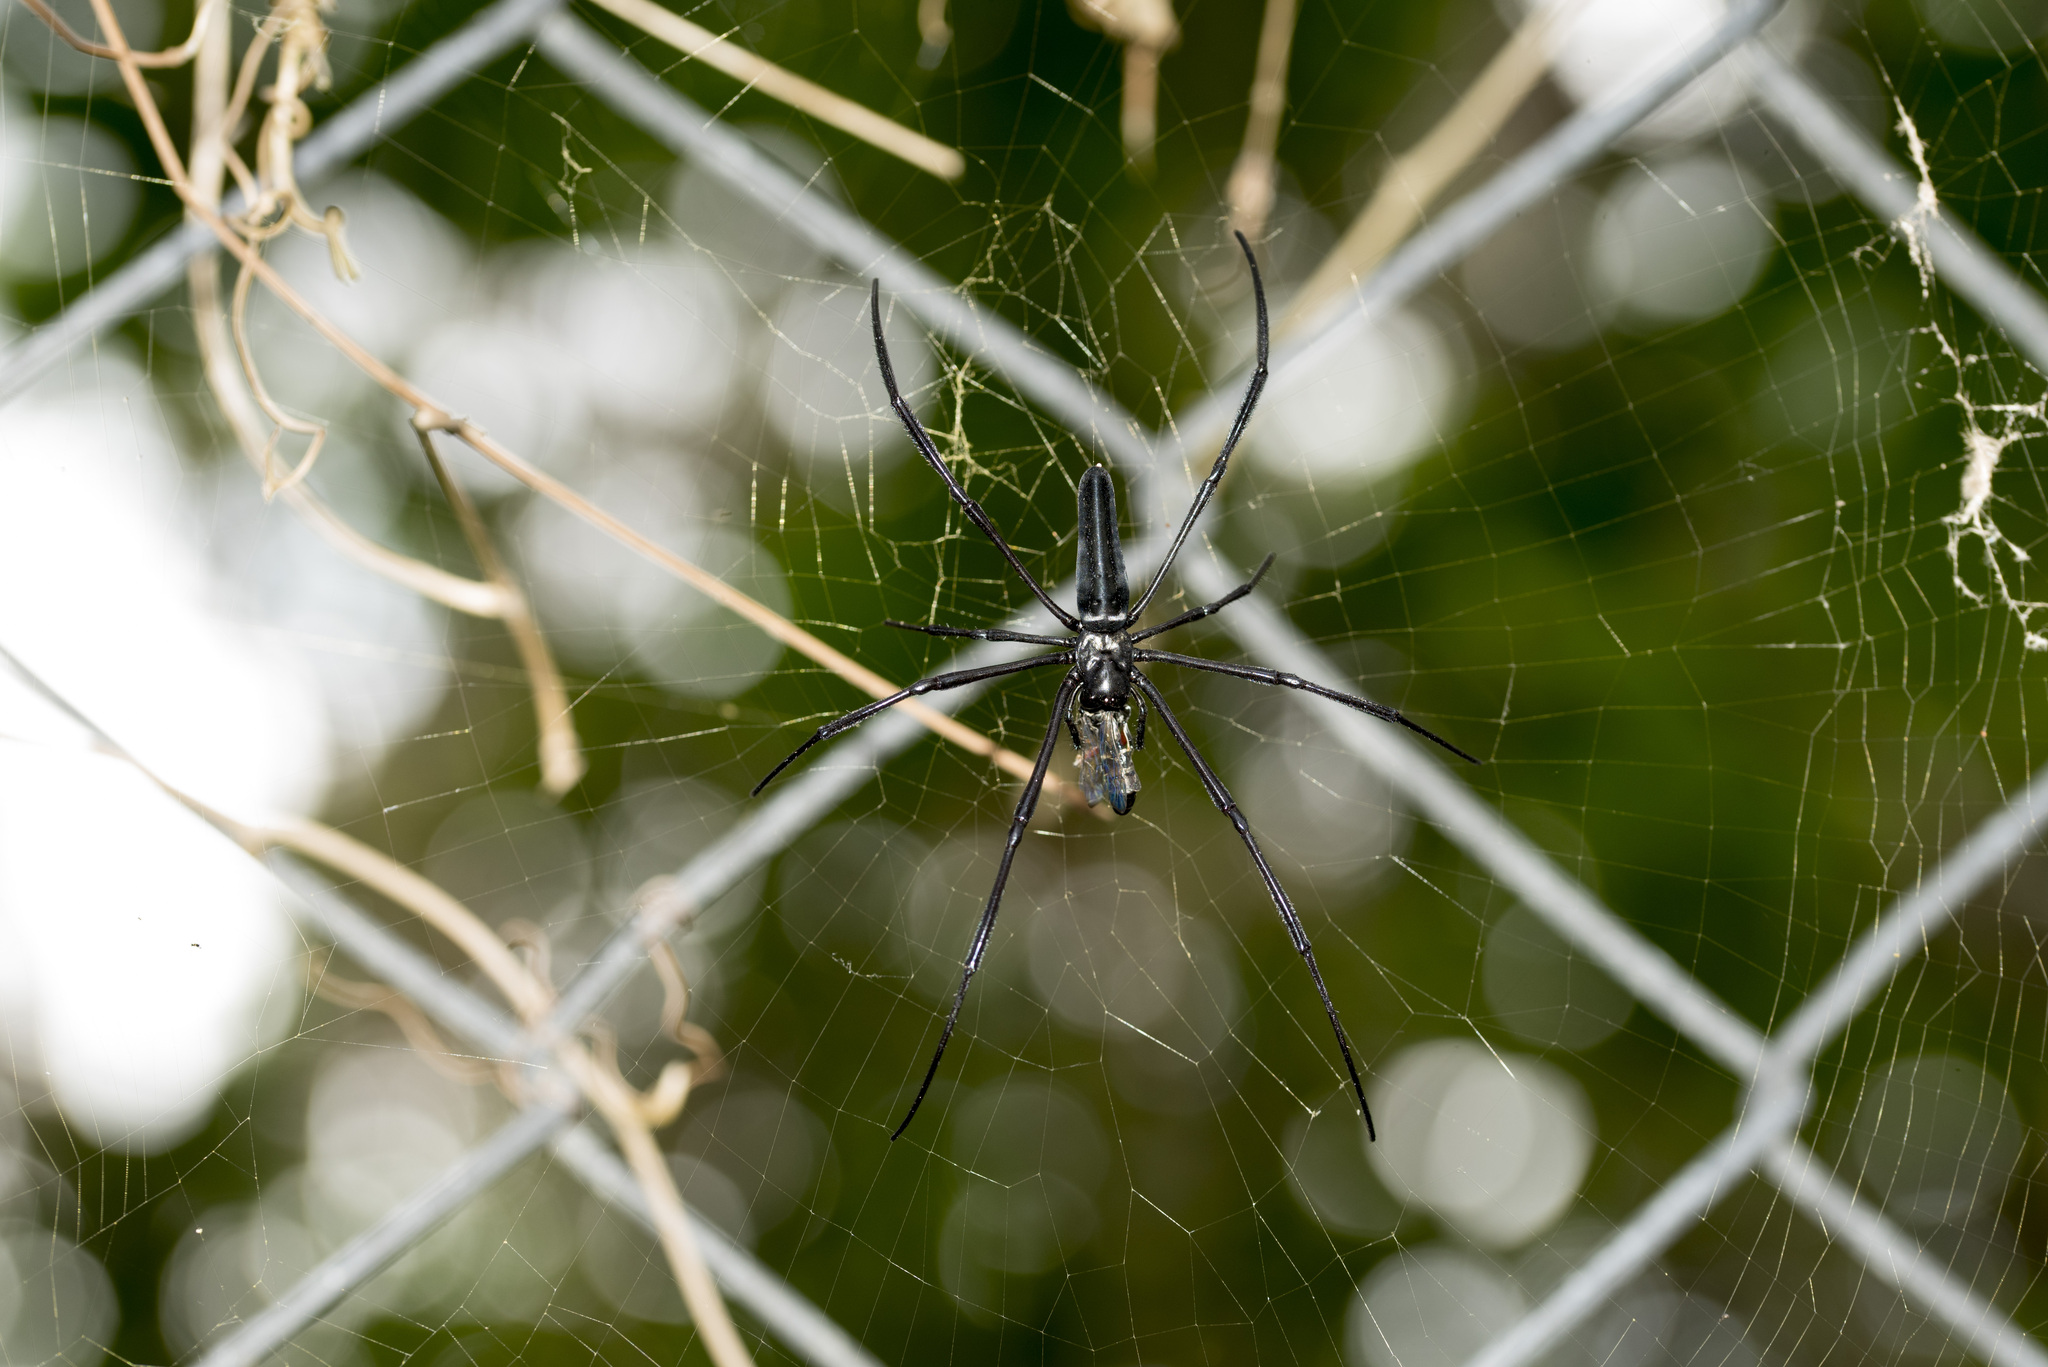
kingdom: Animalia
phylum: Arthropoda
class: Arachnida
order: Araneae
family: Araneidae
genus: Nephila
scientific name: Nephila pilipes
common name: Giant golden orb weaver
